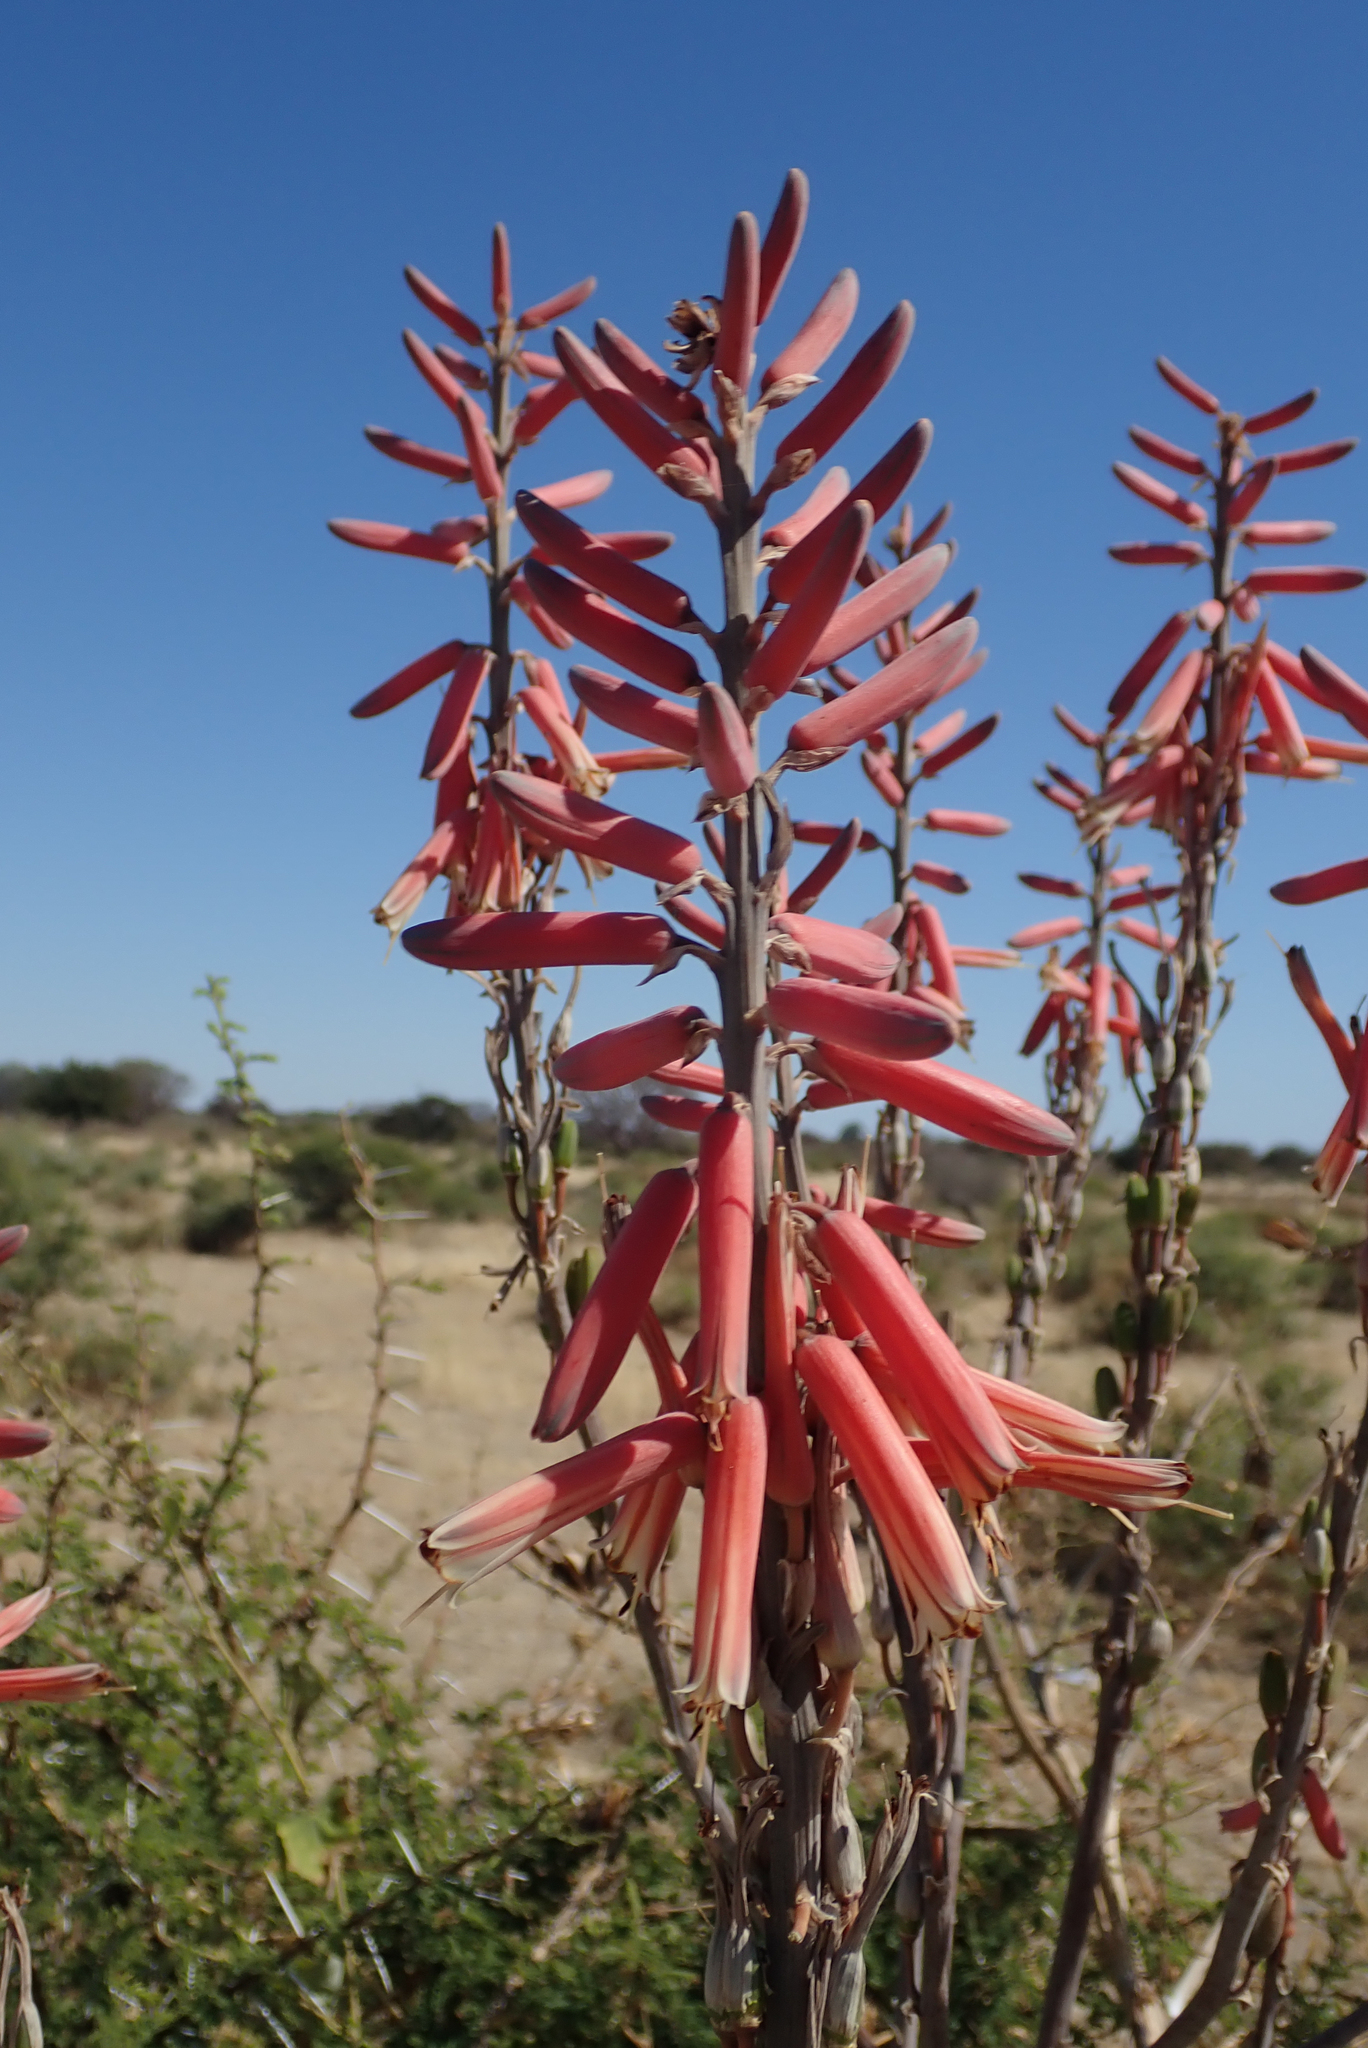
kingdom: Plantae
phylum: Tracheophyta
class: Liliopsida
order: Asparagales
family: Asphodelaceae
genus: Aloe
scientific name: Aloe littoralis
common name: Luanda tree aloe
